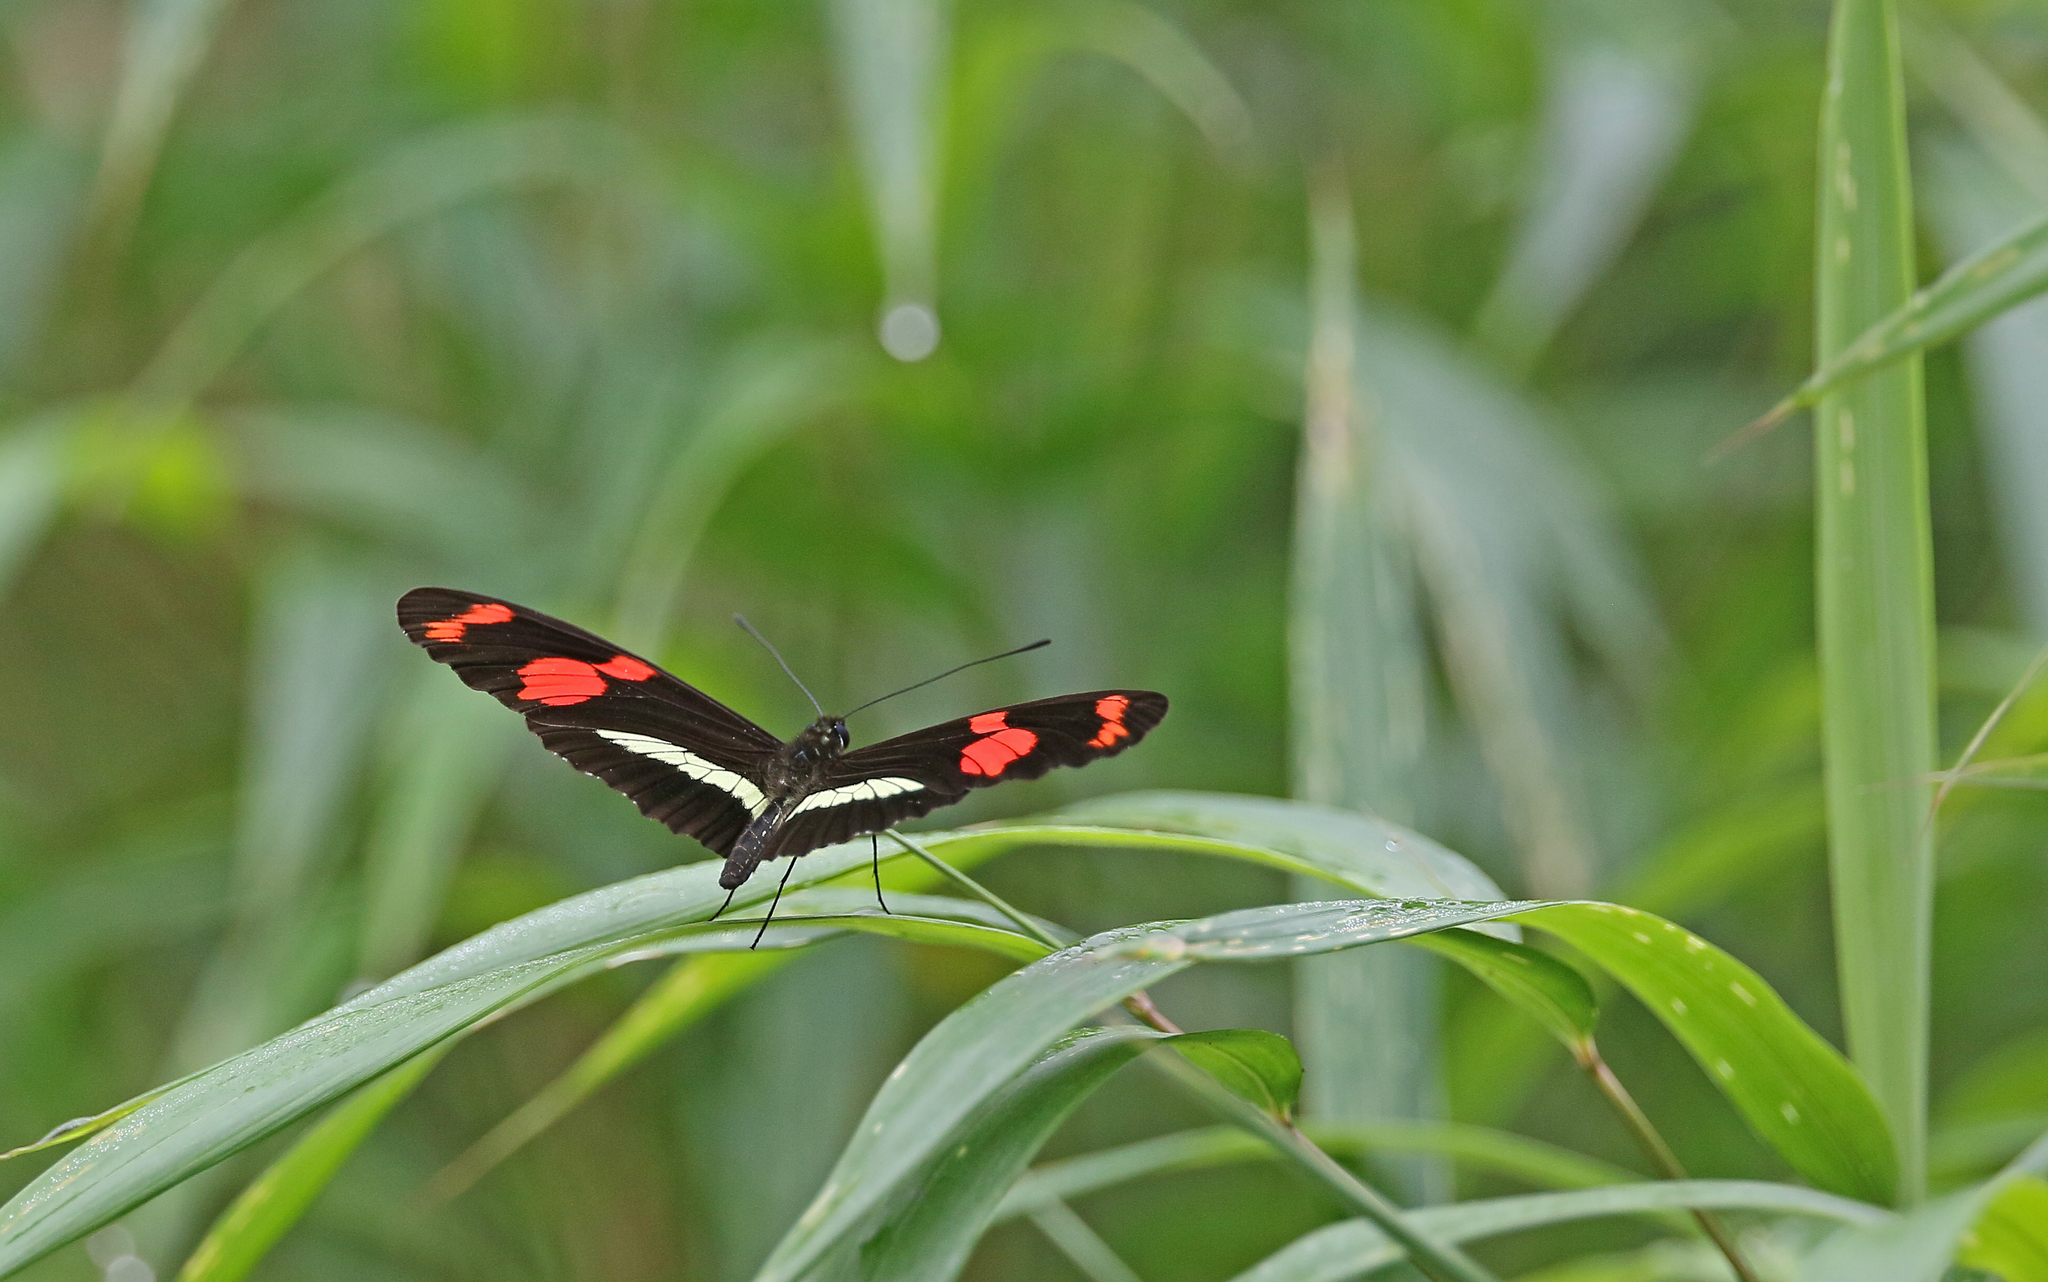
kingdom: Animalia
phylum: Arthropoda
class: Insecta
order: Lepidoptera
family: Nymphalidae
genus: Heliconius
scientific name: Heliconius telesiphe
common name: Telesiphe longwing
